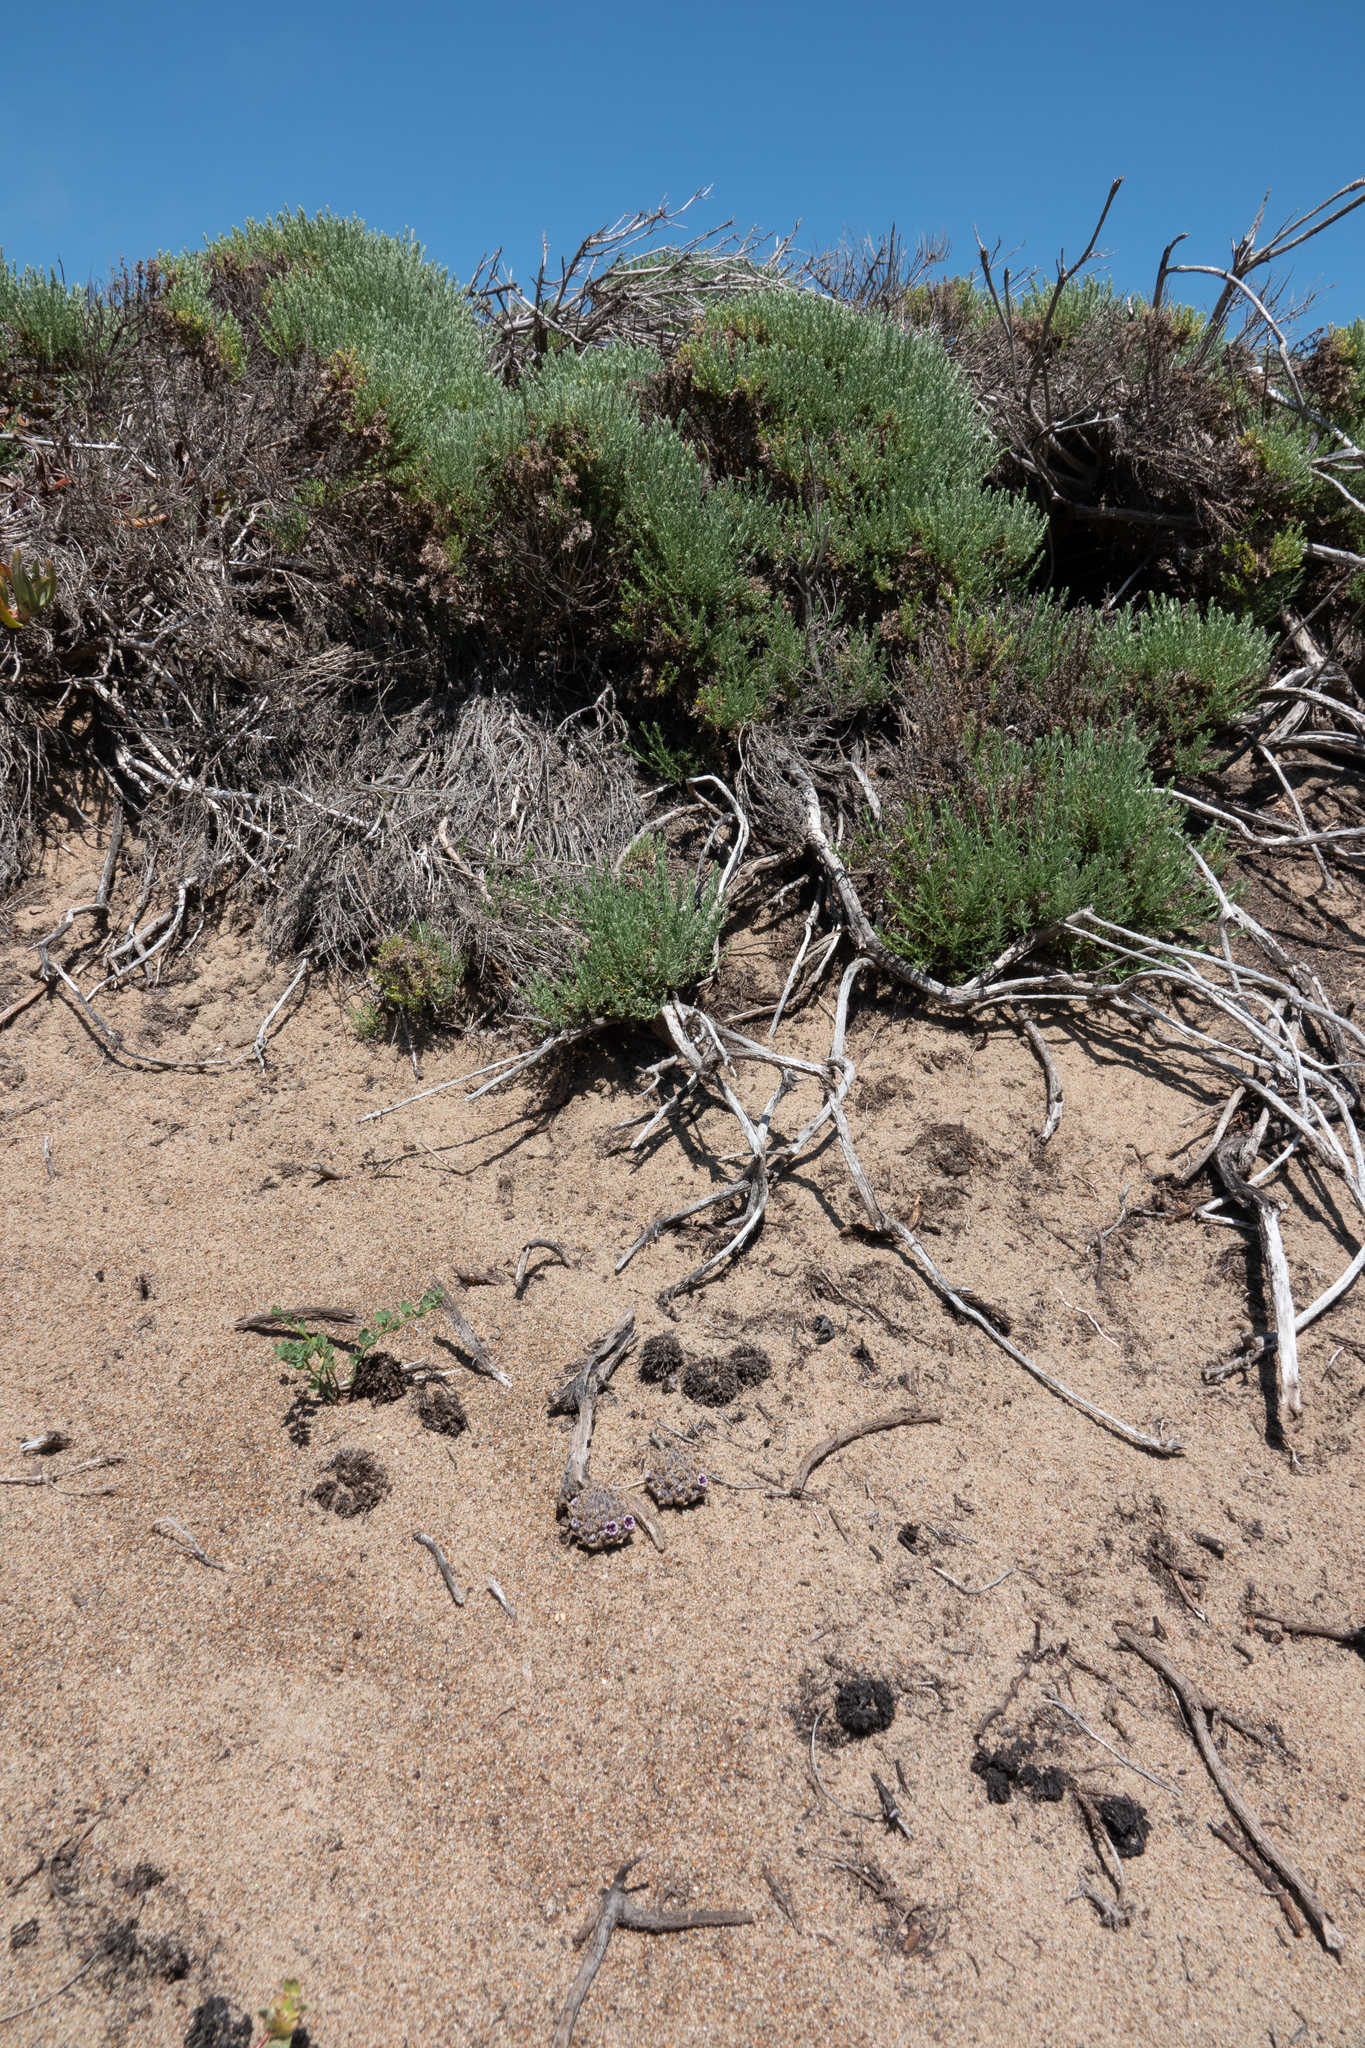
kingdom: Plantae
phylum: Tracheophyta
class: Magnoliopsida
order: Boraginales
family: Lennoaceae
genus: Pholisma
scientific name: Pholisma arenarium
